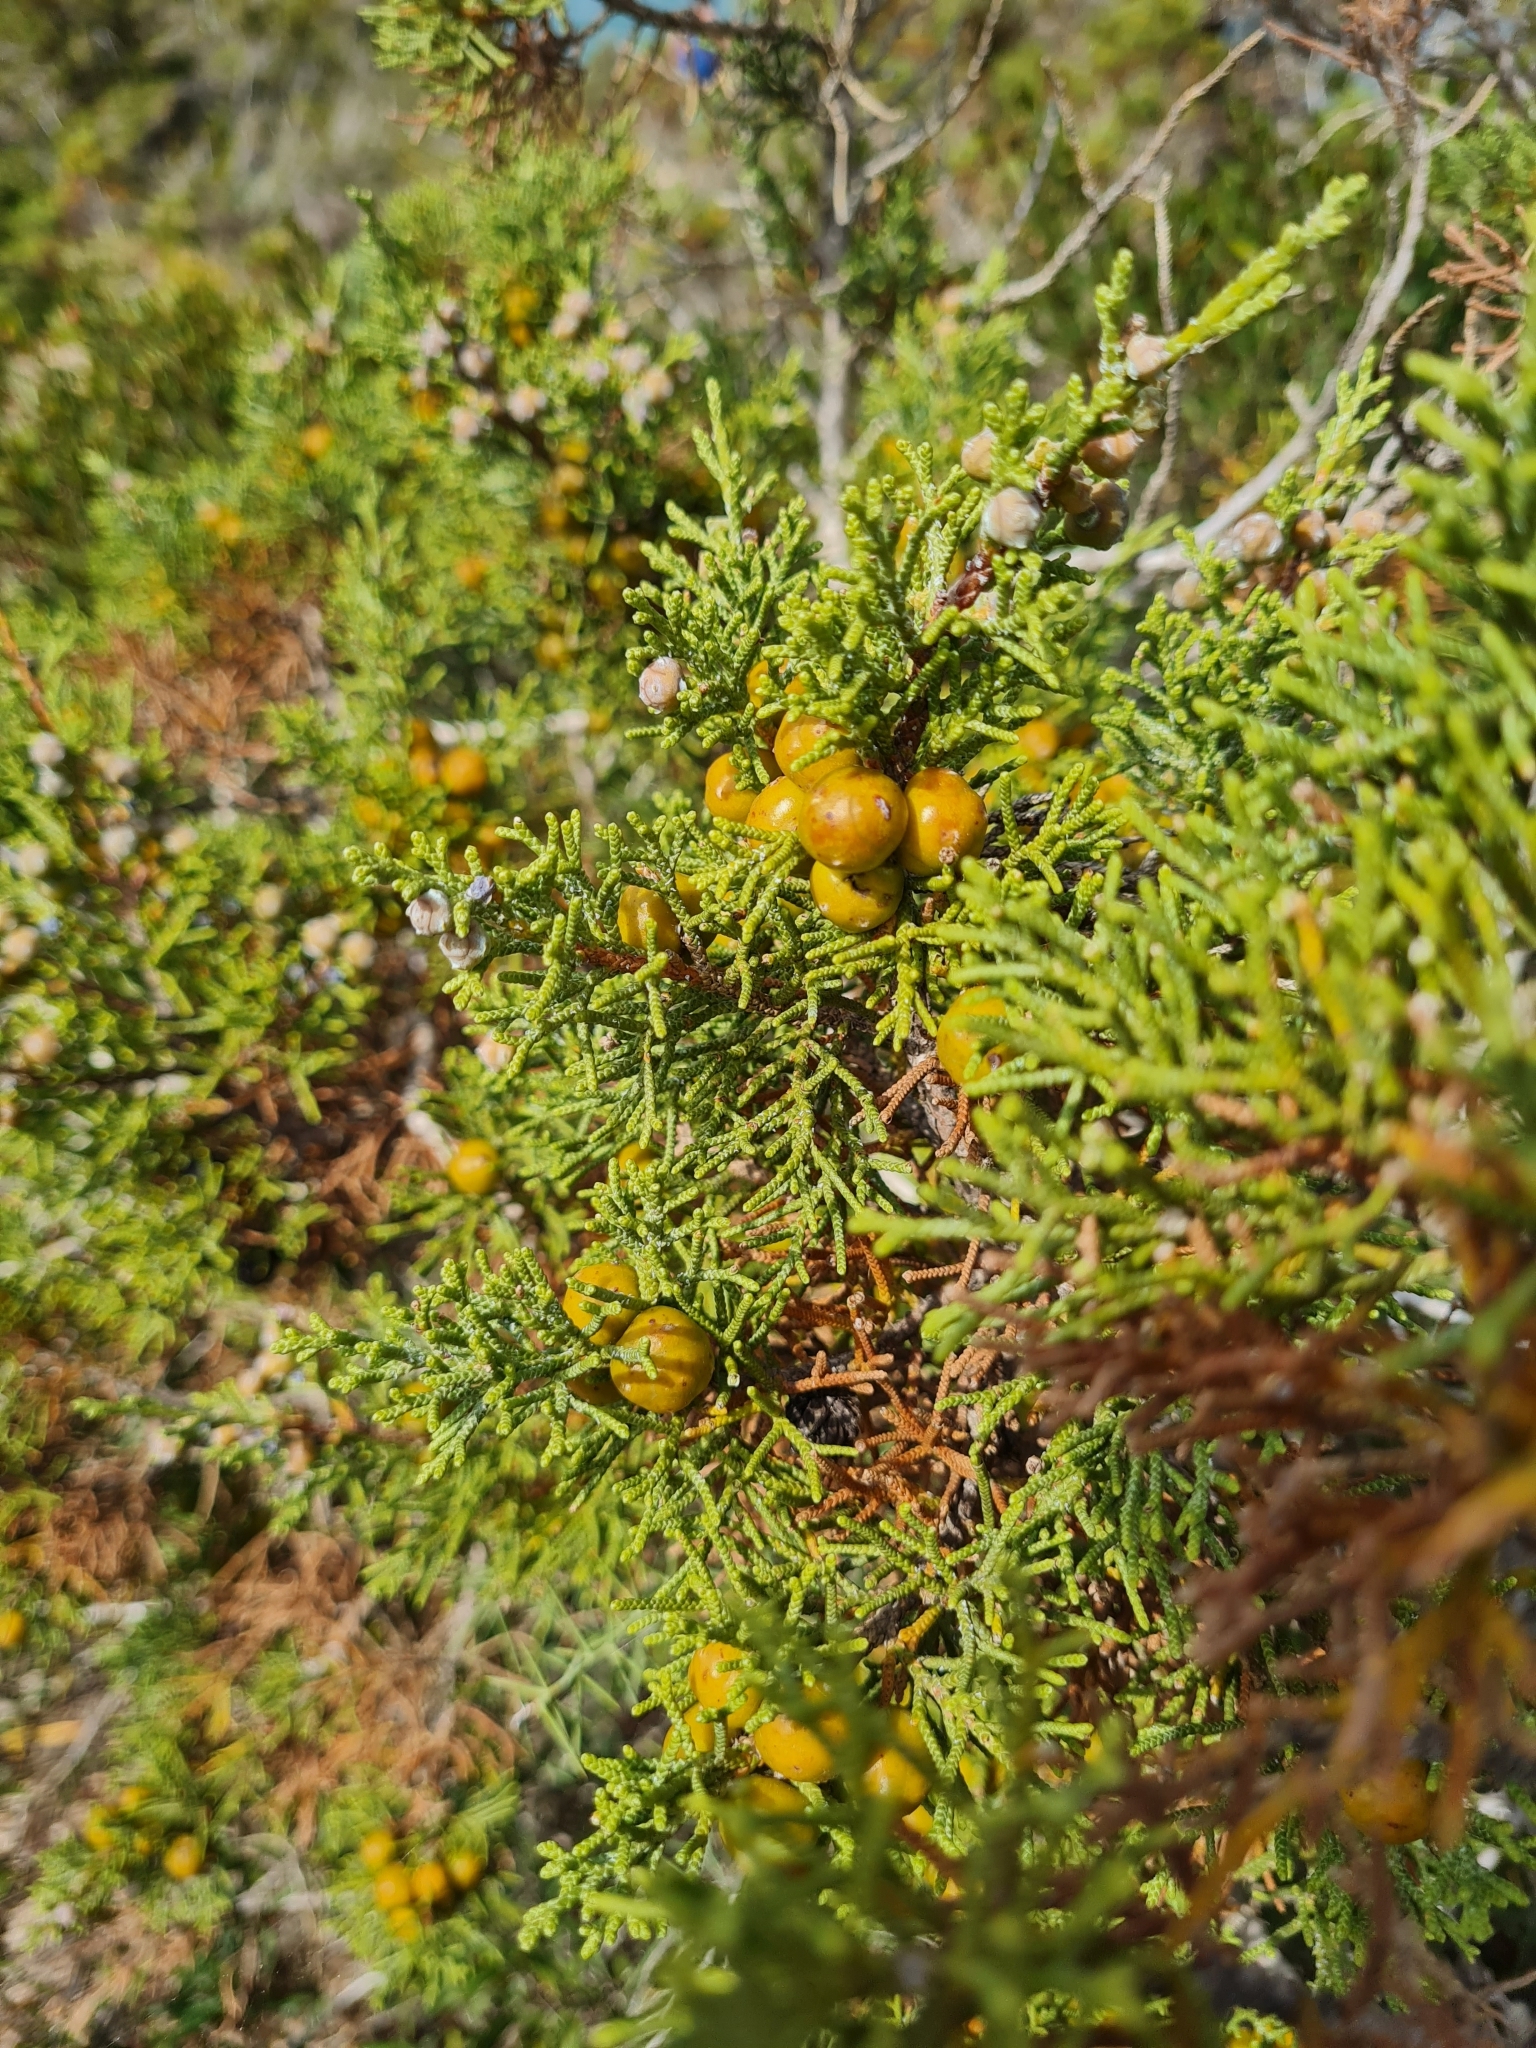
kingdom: Plantae
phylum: Tracheophyta
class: Pinopsida
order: Pinales
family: Cupressaceae
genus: Juniperus
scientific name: Juniperus phoenicea
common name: Phoenician juniper
